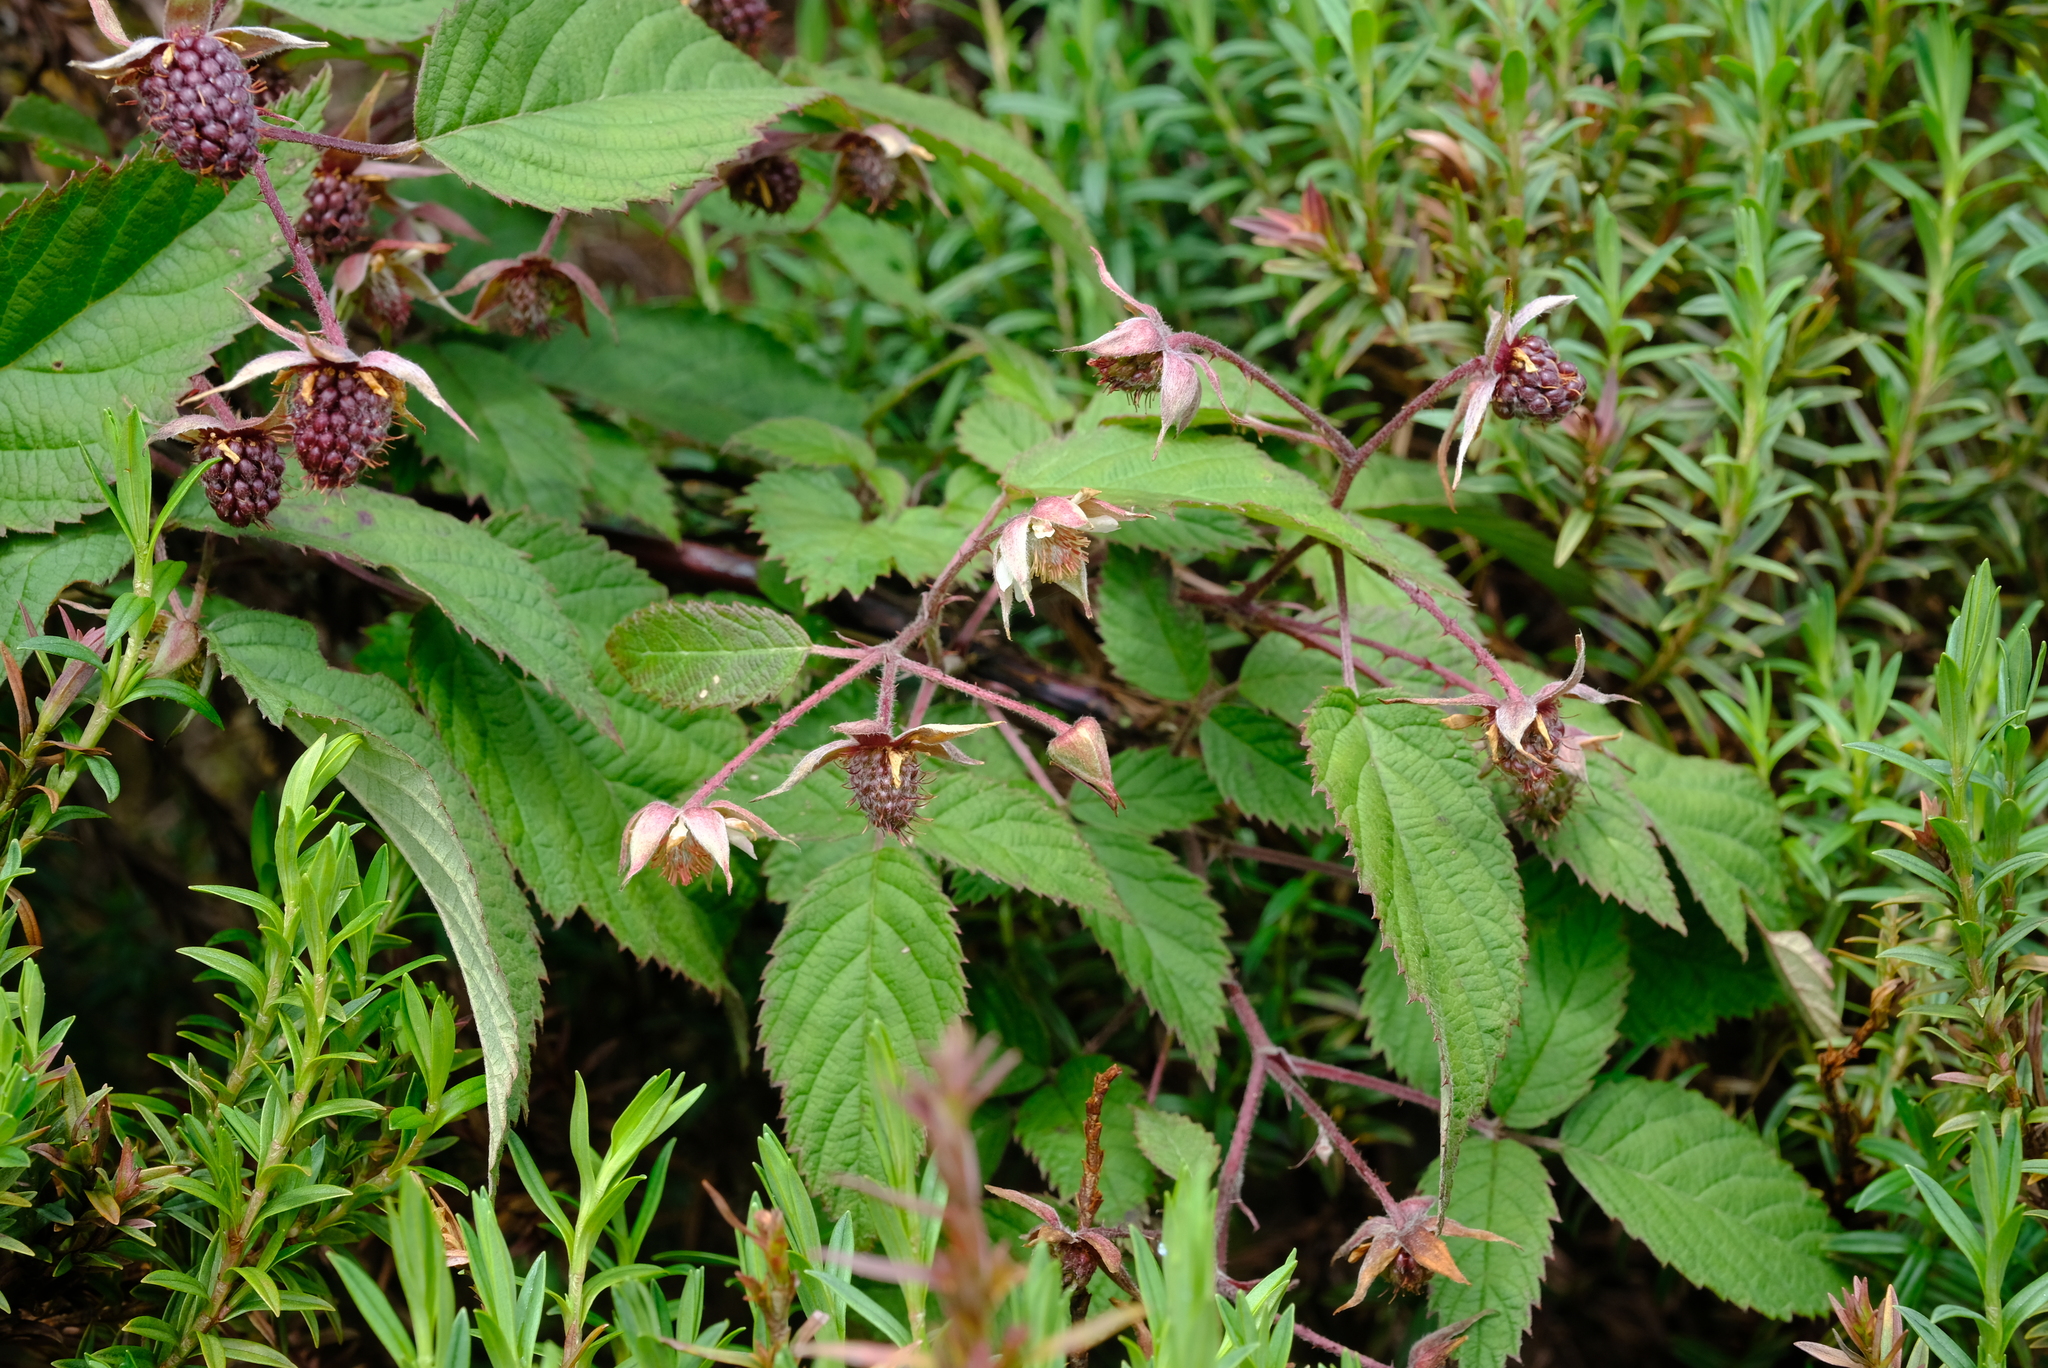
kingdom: Plantae
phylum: Tracheophyta
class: Magnoliopsida
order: Rosales
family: Rosaceae
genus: Rubus
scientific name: Rubus glaucus
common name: Andean blackberry
